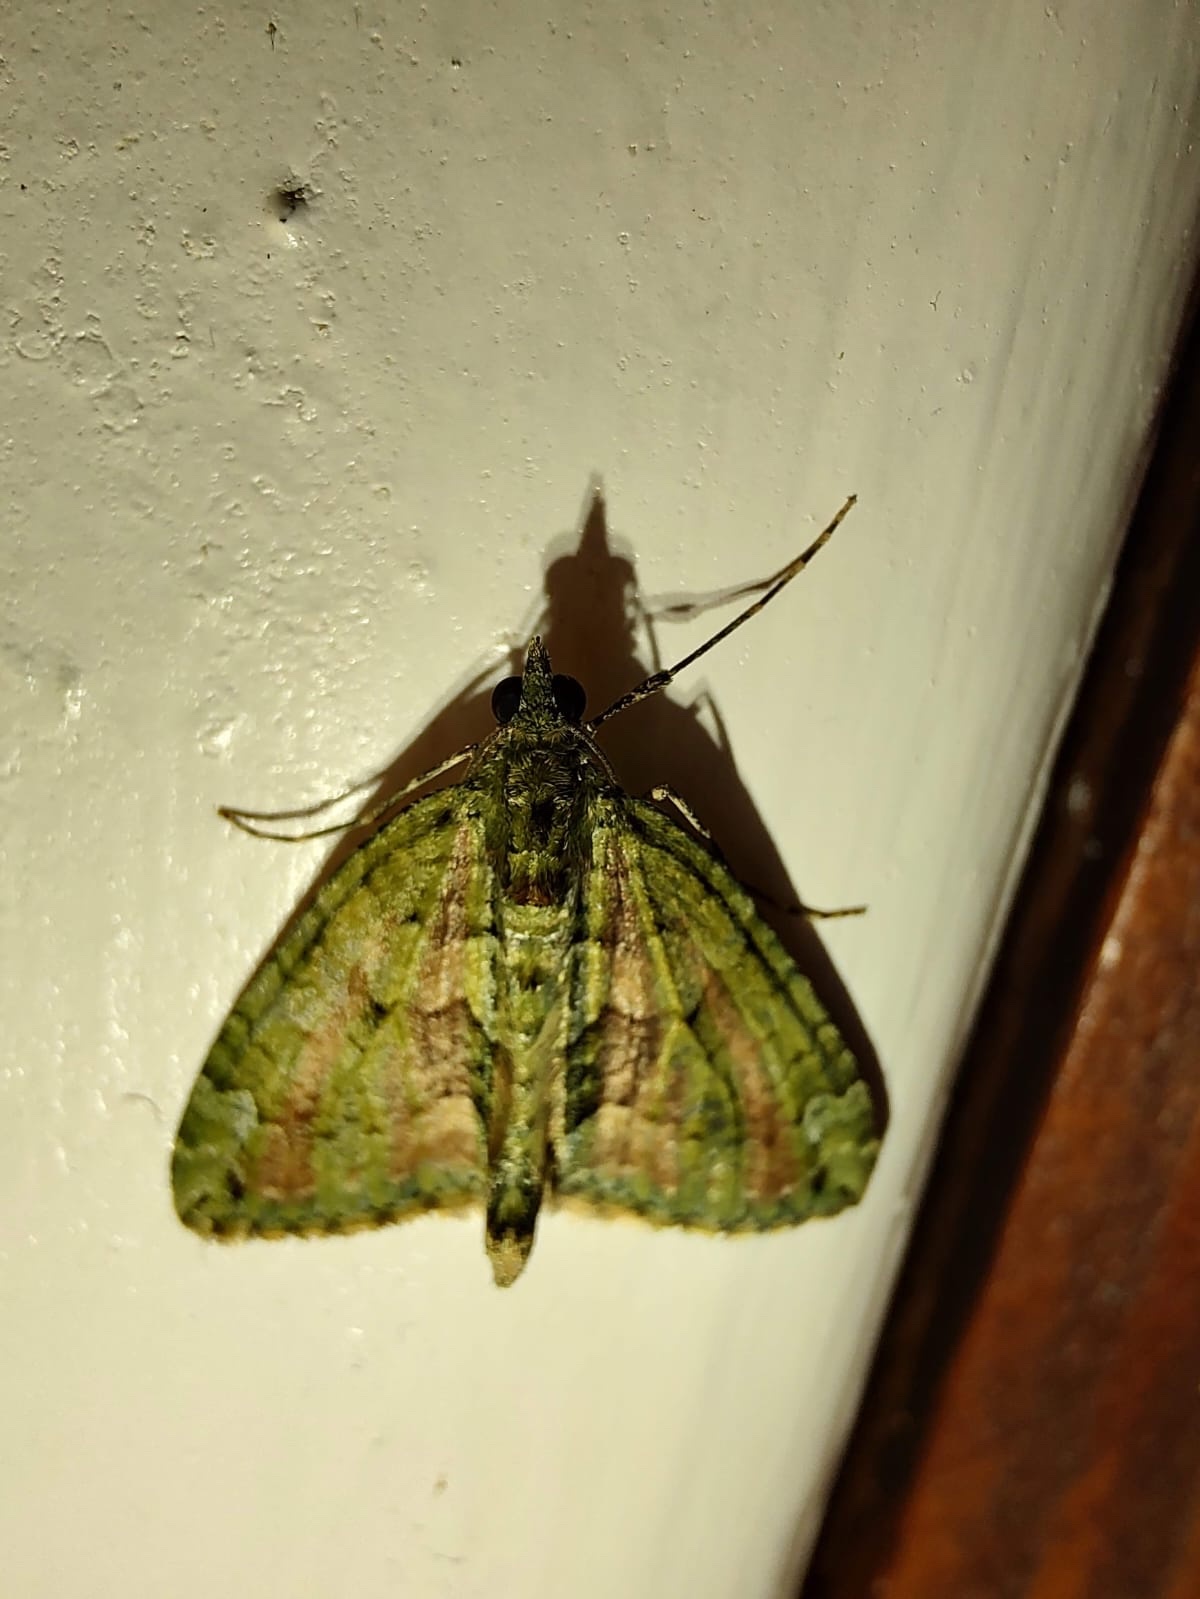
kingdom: Animalia
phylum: Arthropoda
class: Insecta
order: Lepidoptera
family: Geometridae
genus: Chloroclysta
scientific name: Chloroclysta siterata
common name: Red-green carpet
